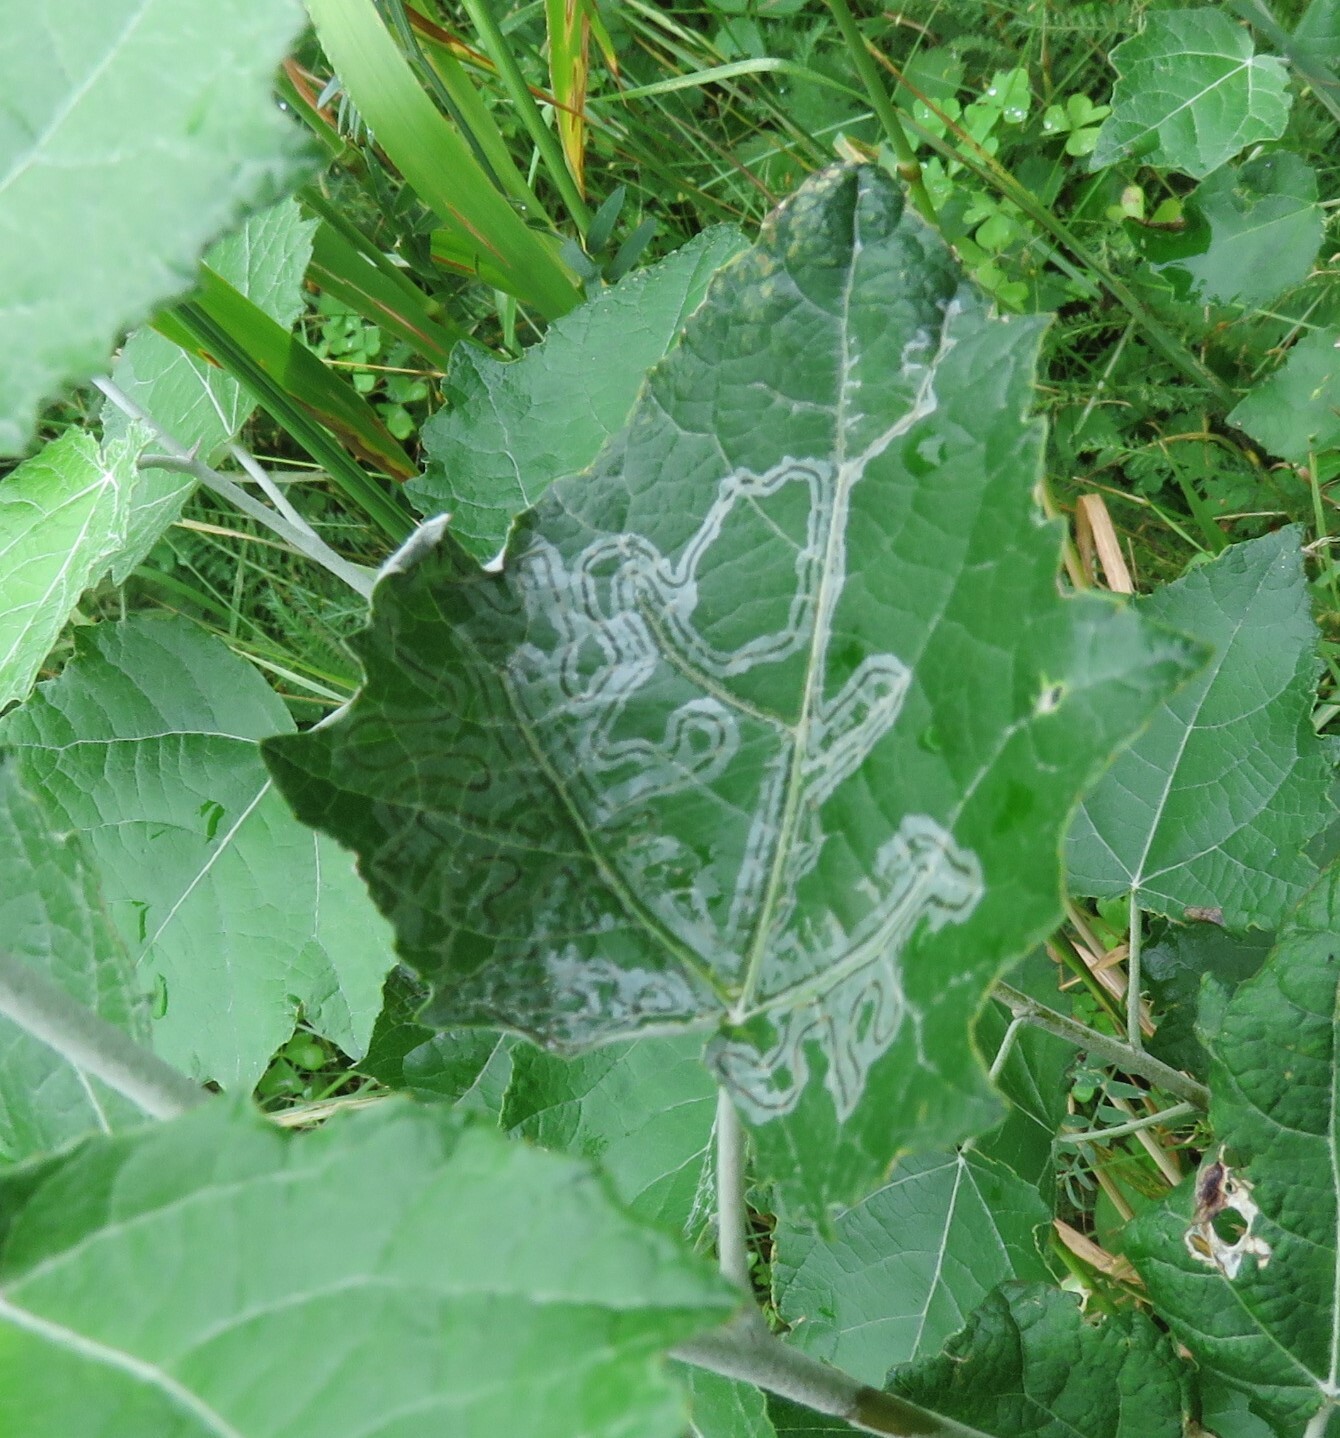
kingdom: Animalia
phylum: Arthropoda
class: Insecta
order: Lepidoptera
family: Gracillariidae
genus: Phyllocnistis
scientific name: Phyllocnistis populiella
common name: Aspen serpentine leafminer moth
